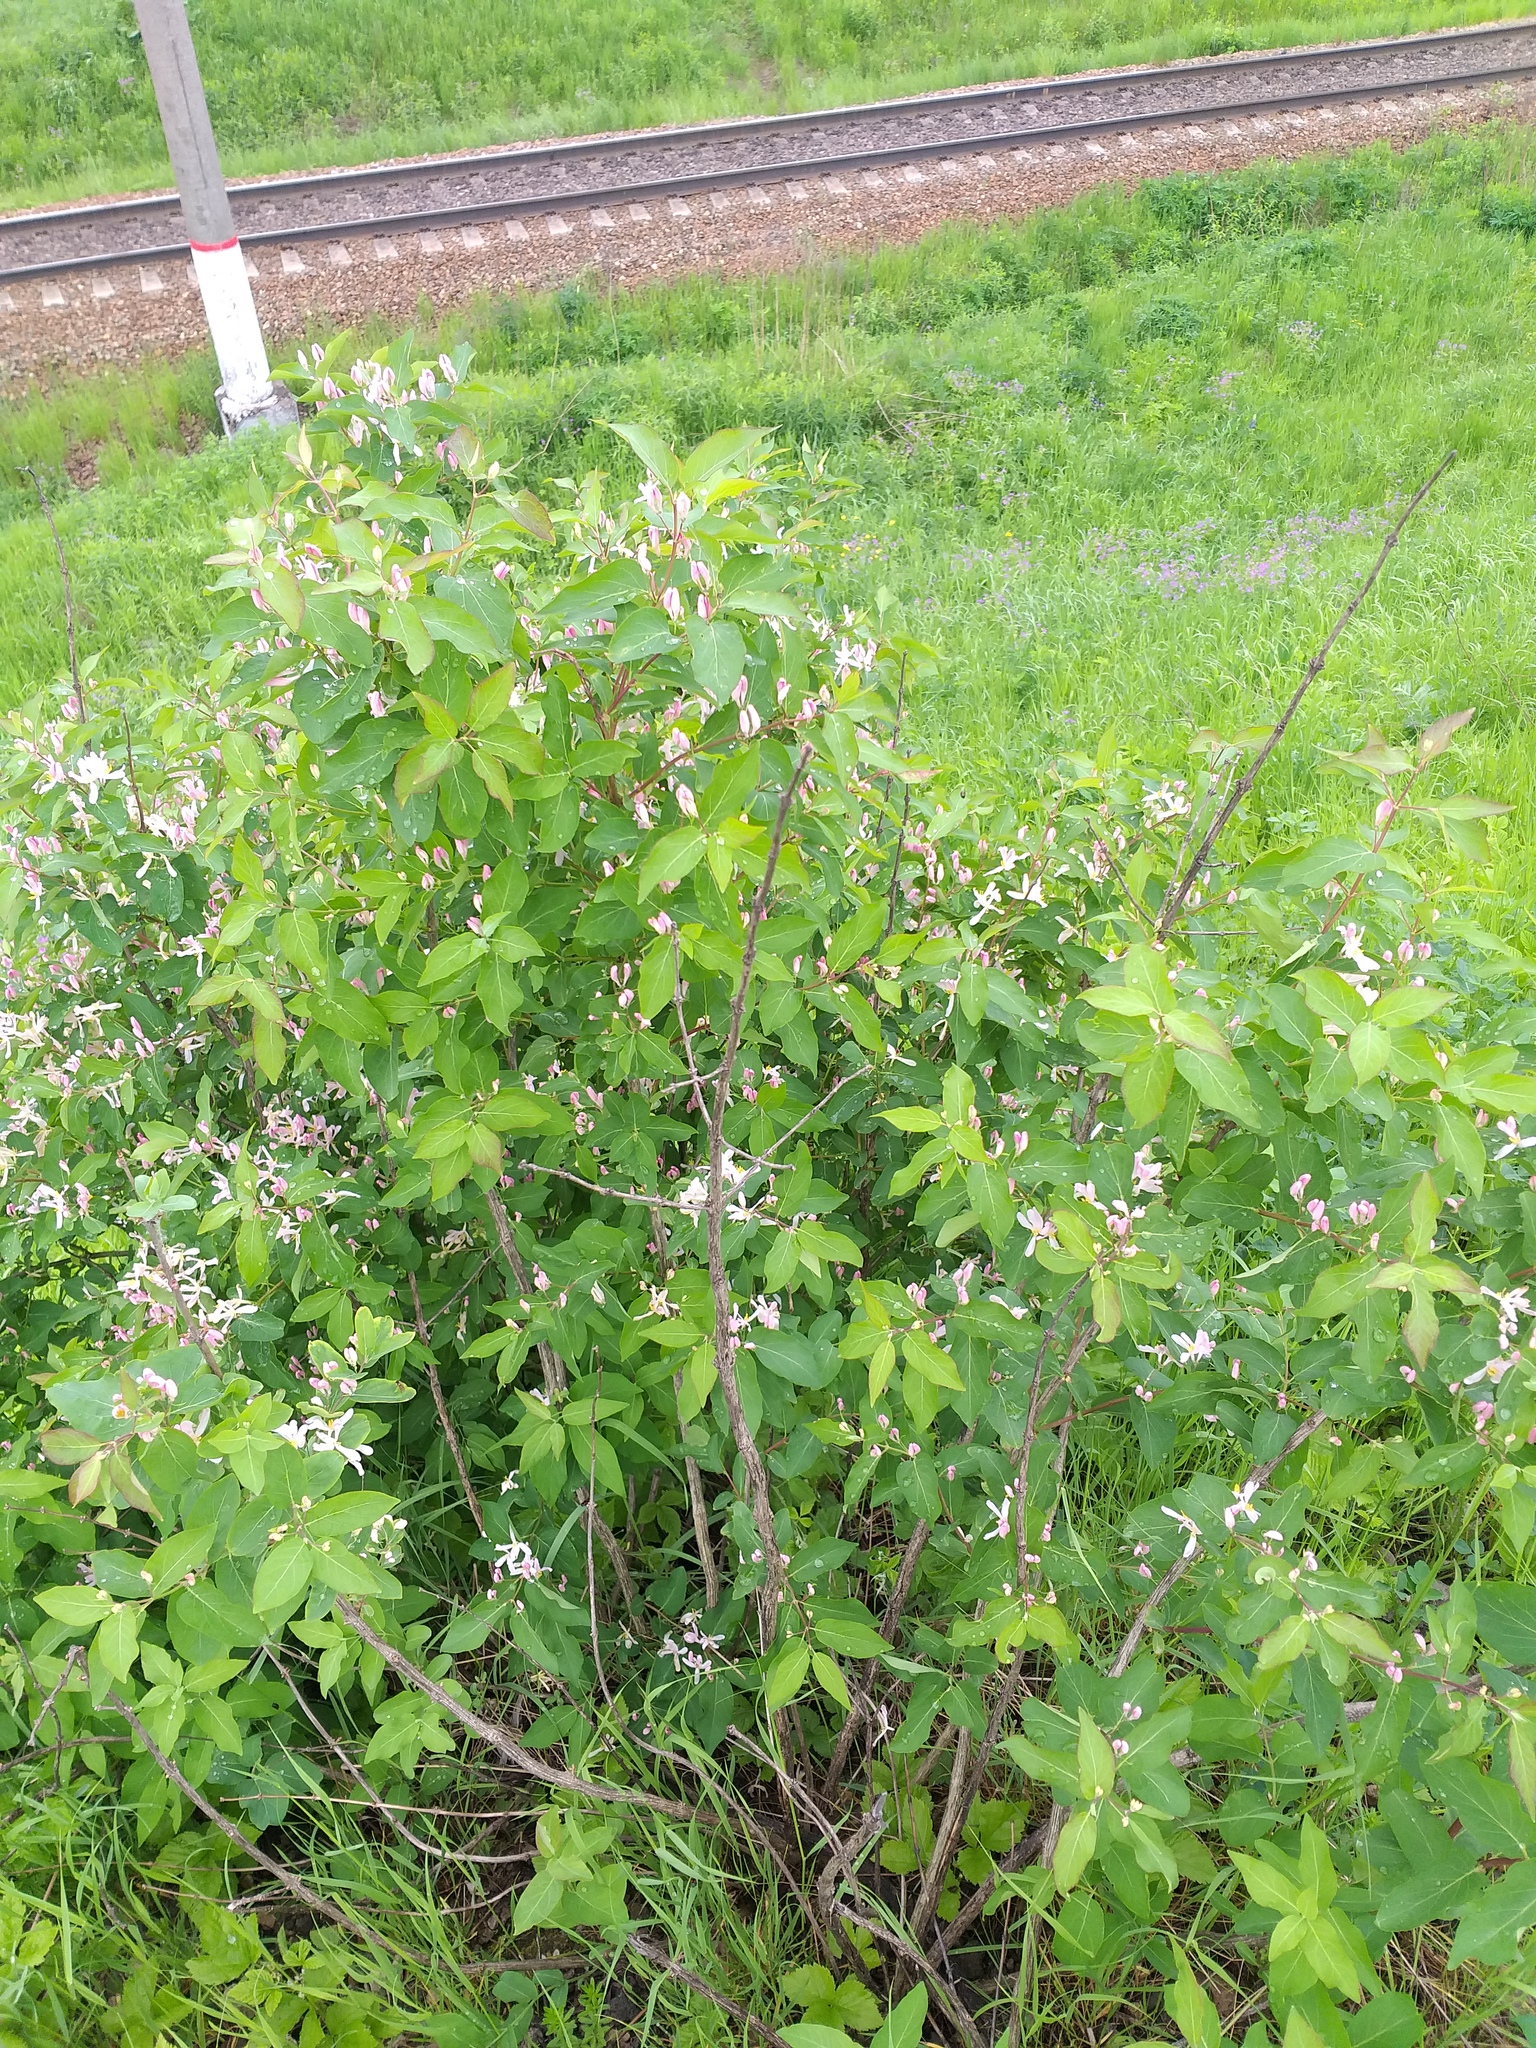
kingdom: Plantae
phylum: Tracheophyta
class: Magnoliopsida
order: Dipsacales
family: Caprifoliaceae
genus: Lonicera
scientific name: Lonicera tatarica
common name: Tatarian honeysuckle
